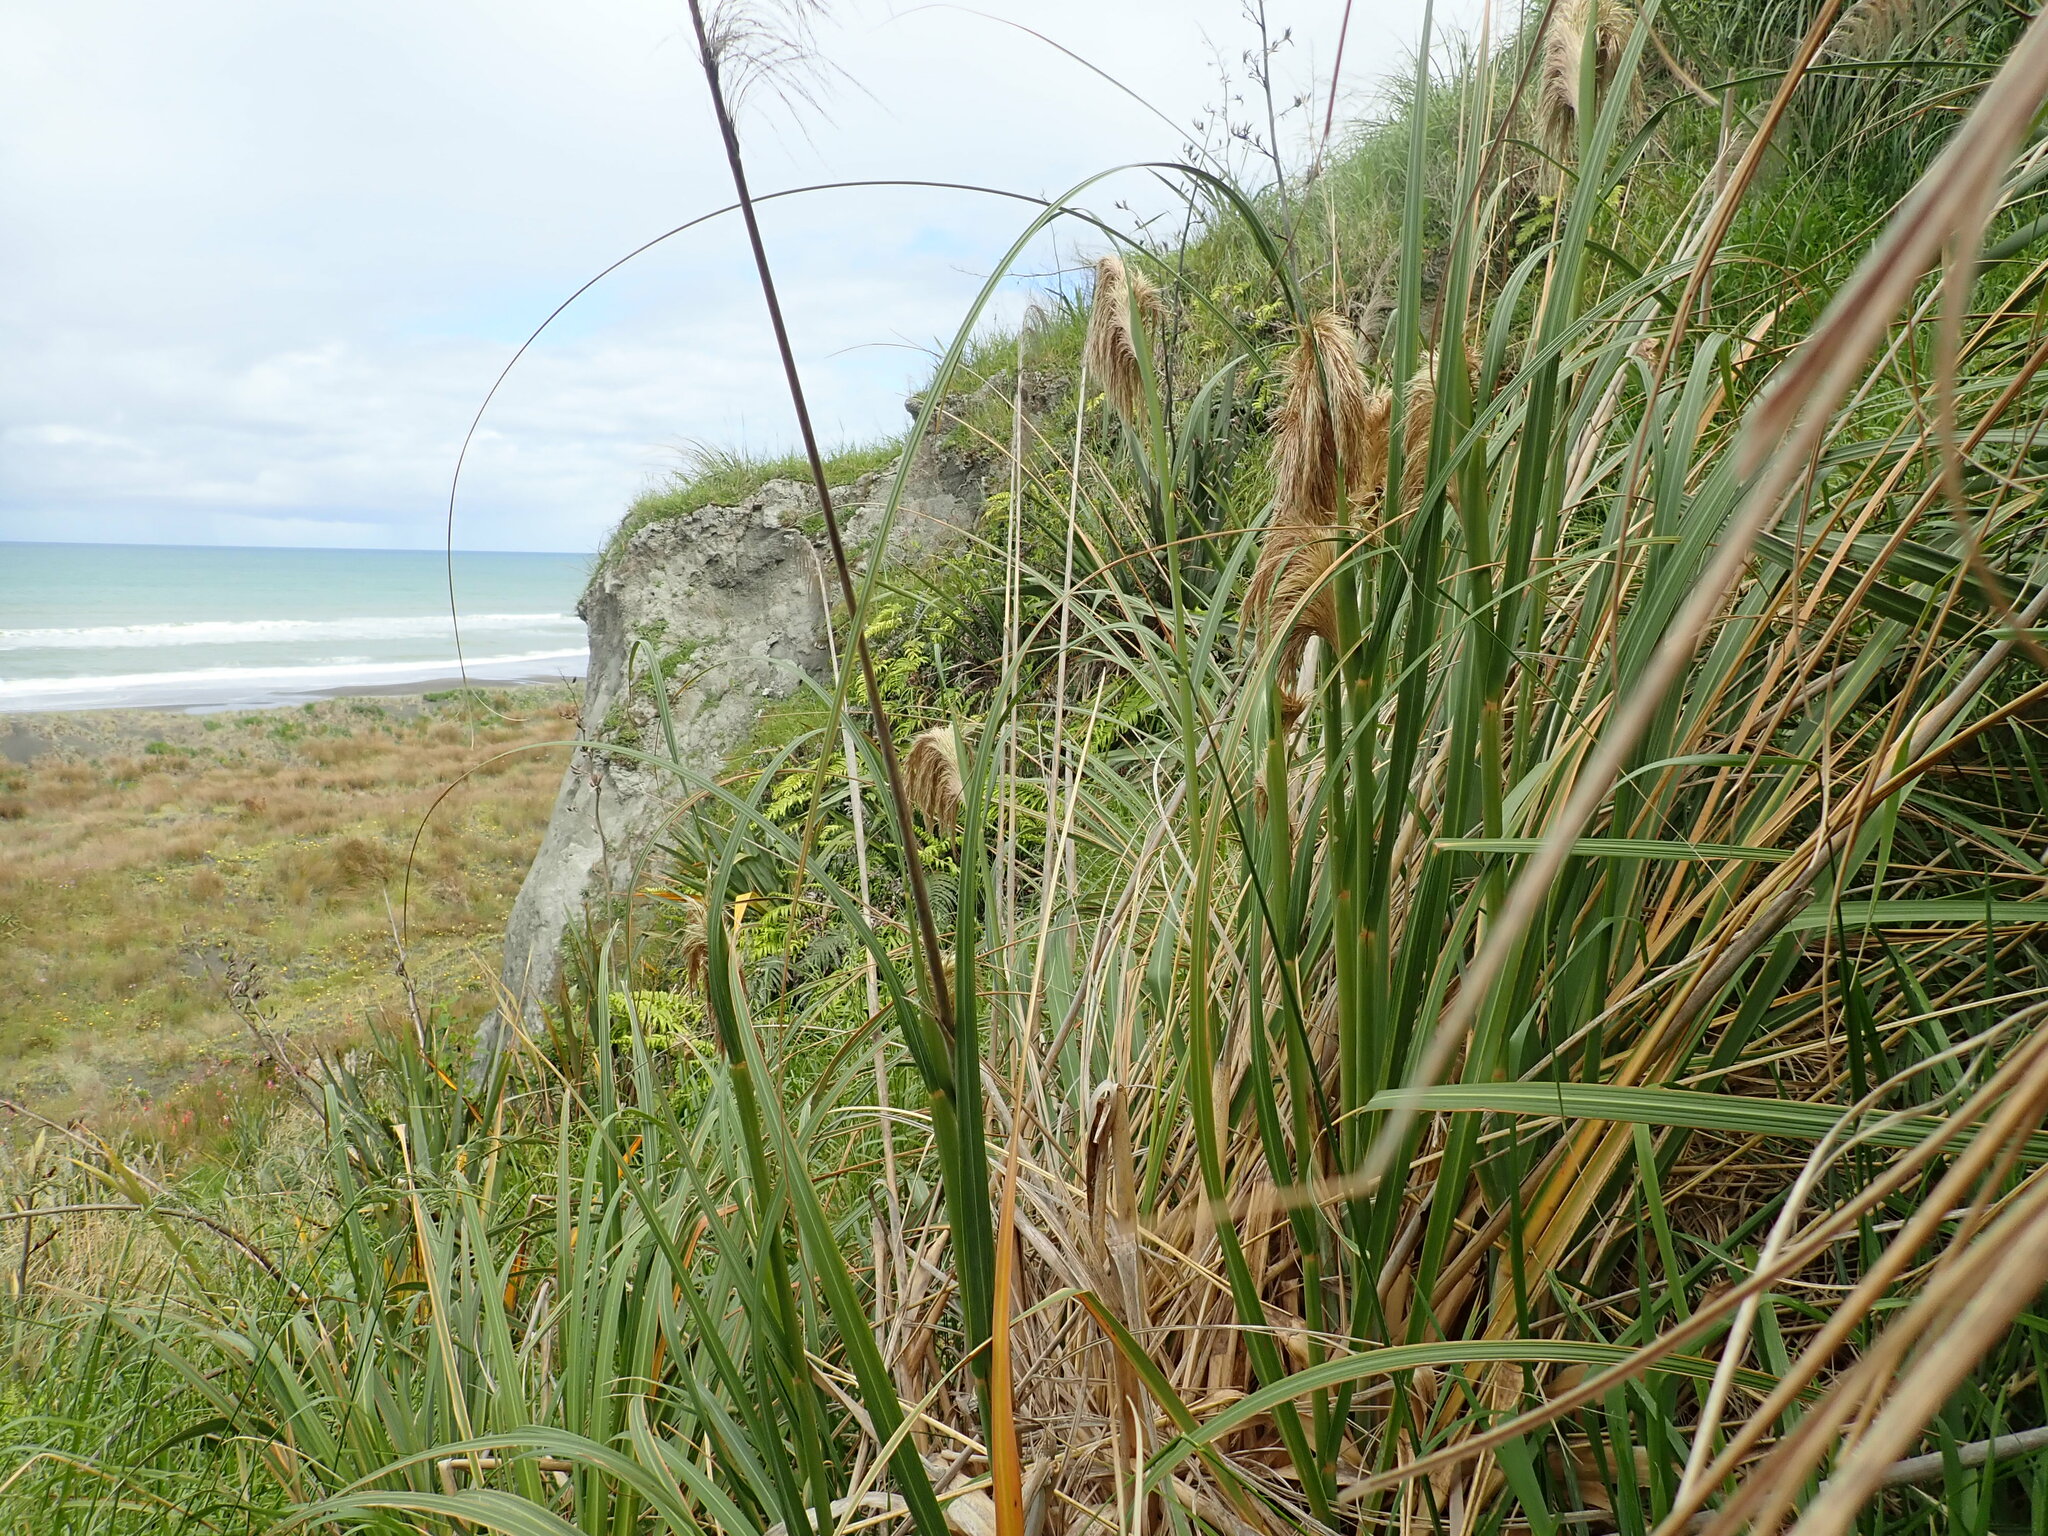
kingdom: Plantae
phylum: Tracheophyta
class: Liliopsida
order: Poales
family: Poaceae
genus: Austroderia
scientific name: Austroderia fulvida
